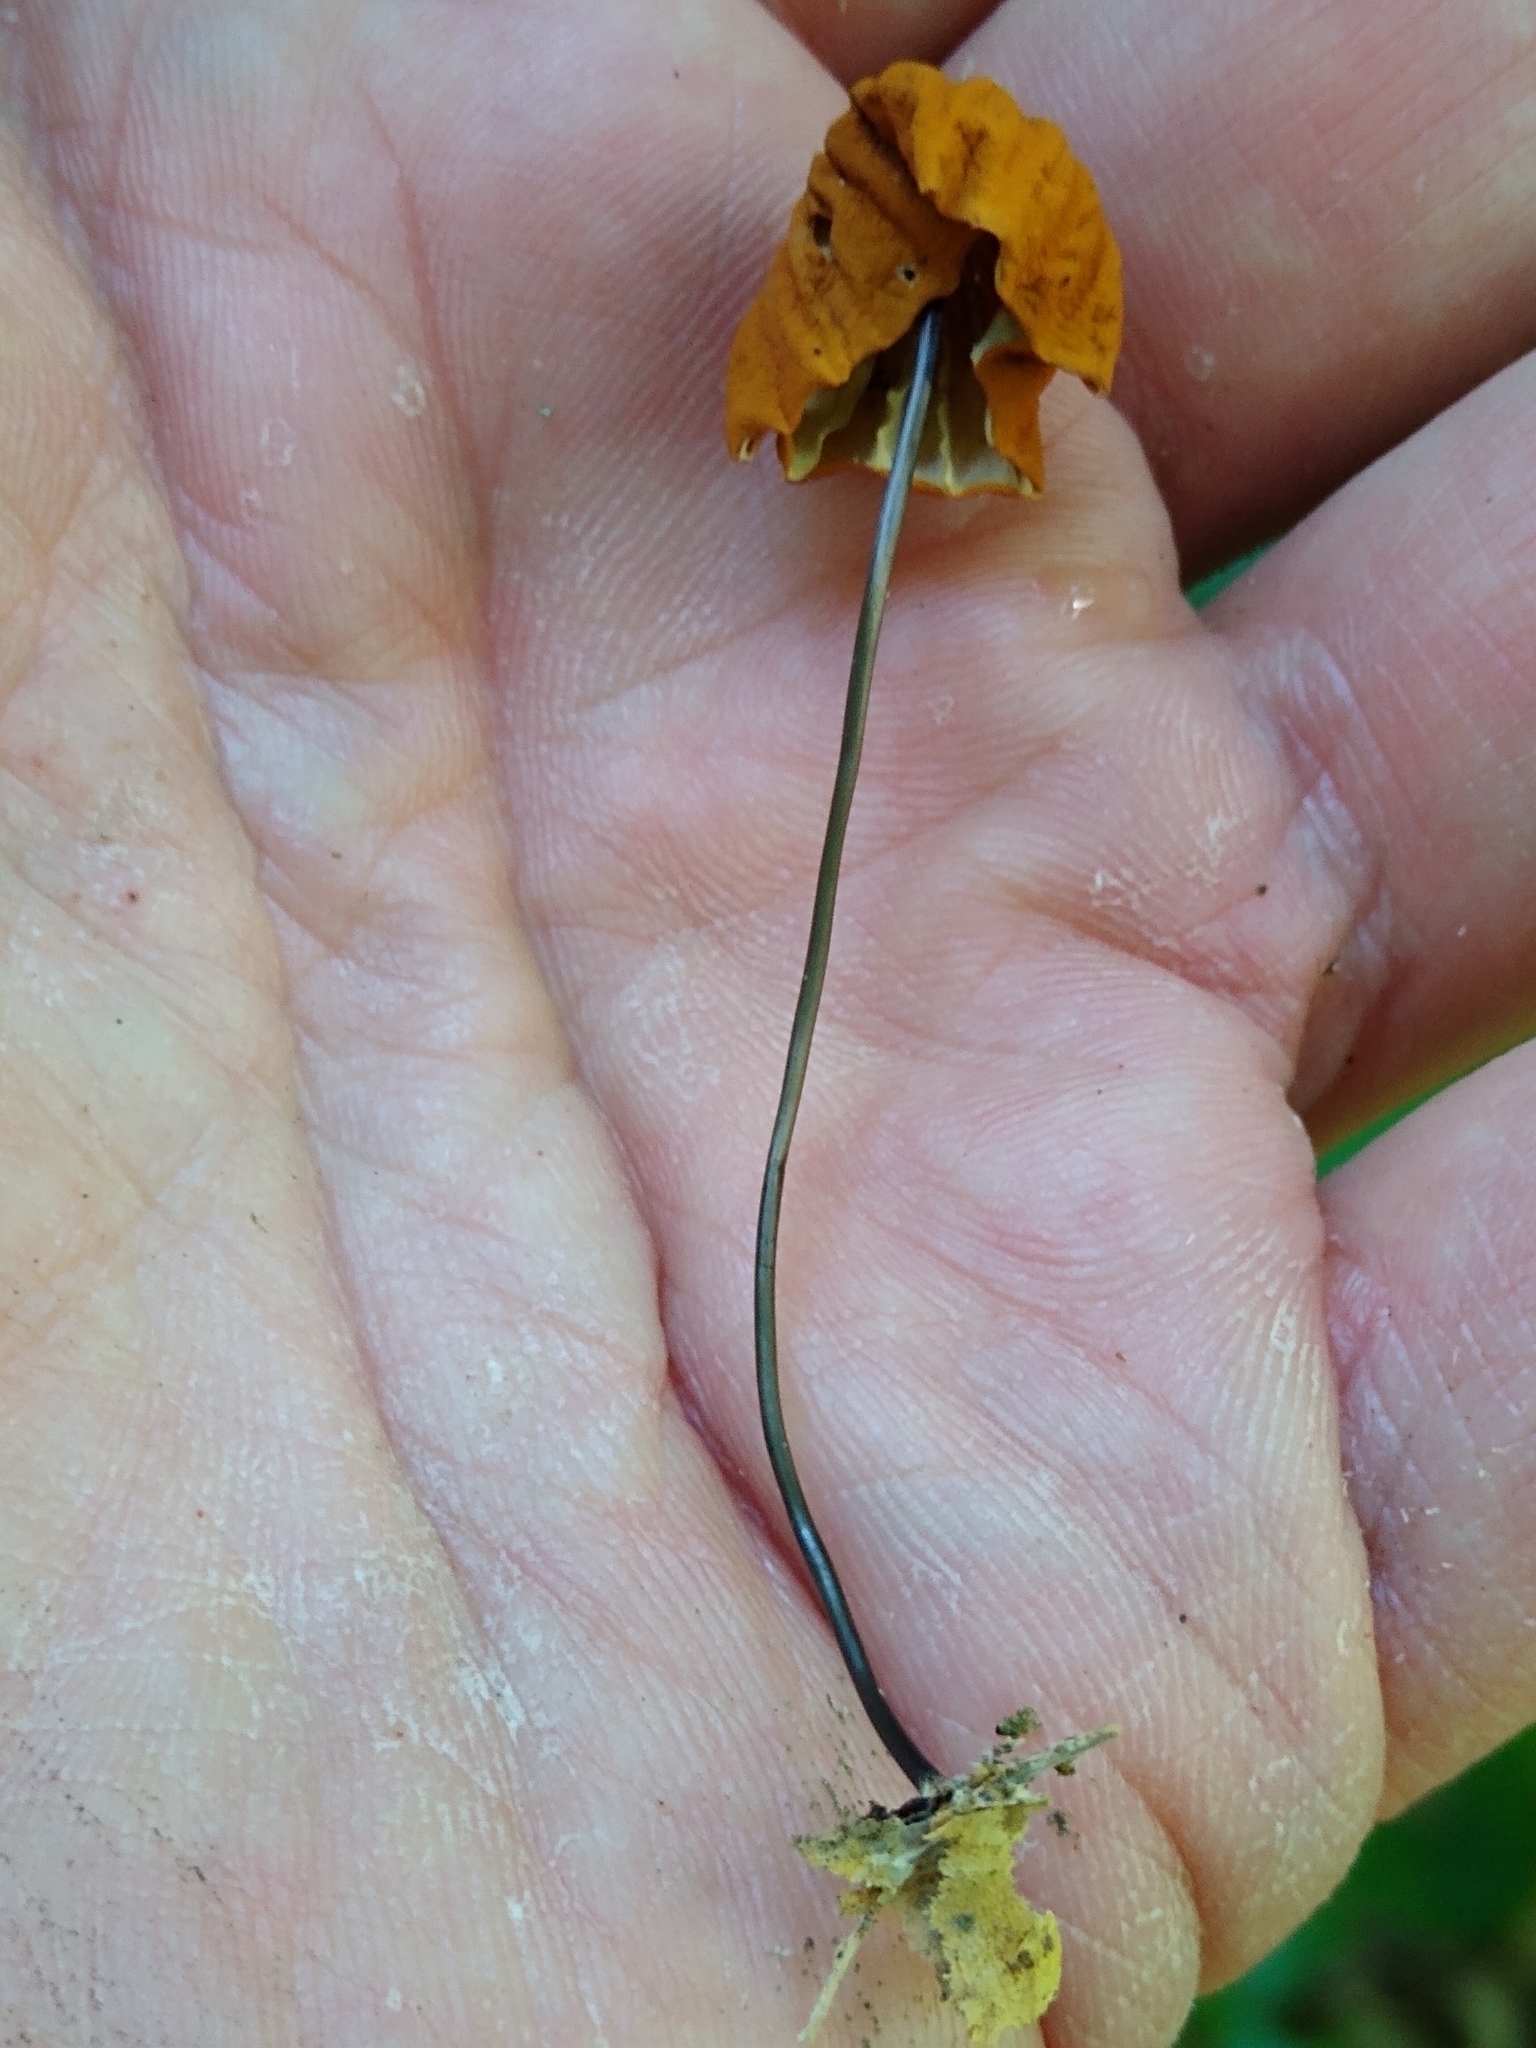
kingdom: Fungi
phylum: Basidiomycota
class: Agaricomycetes
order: Agaricales
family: Marasmiaceae
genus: Marasmius
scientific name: Marasmius fulvoferrugineus
